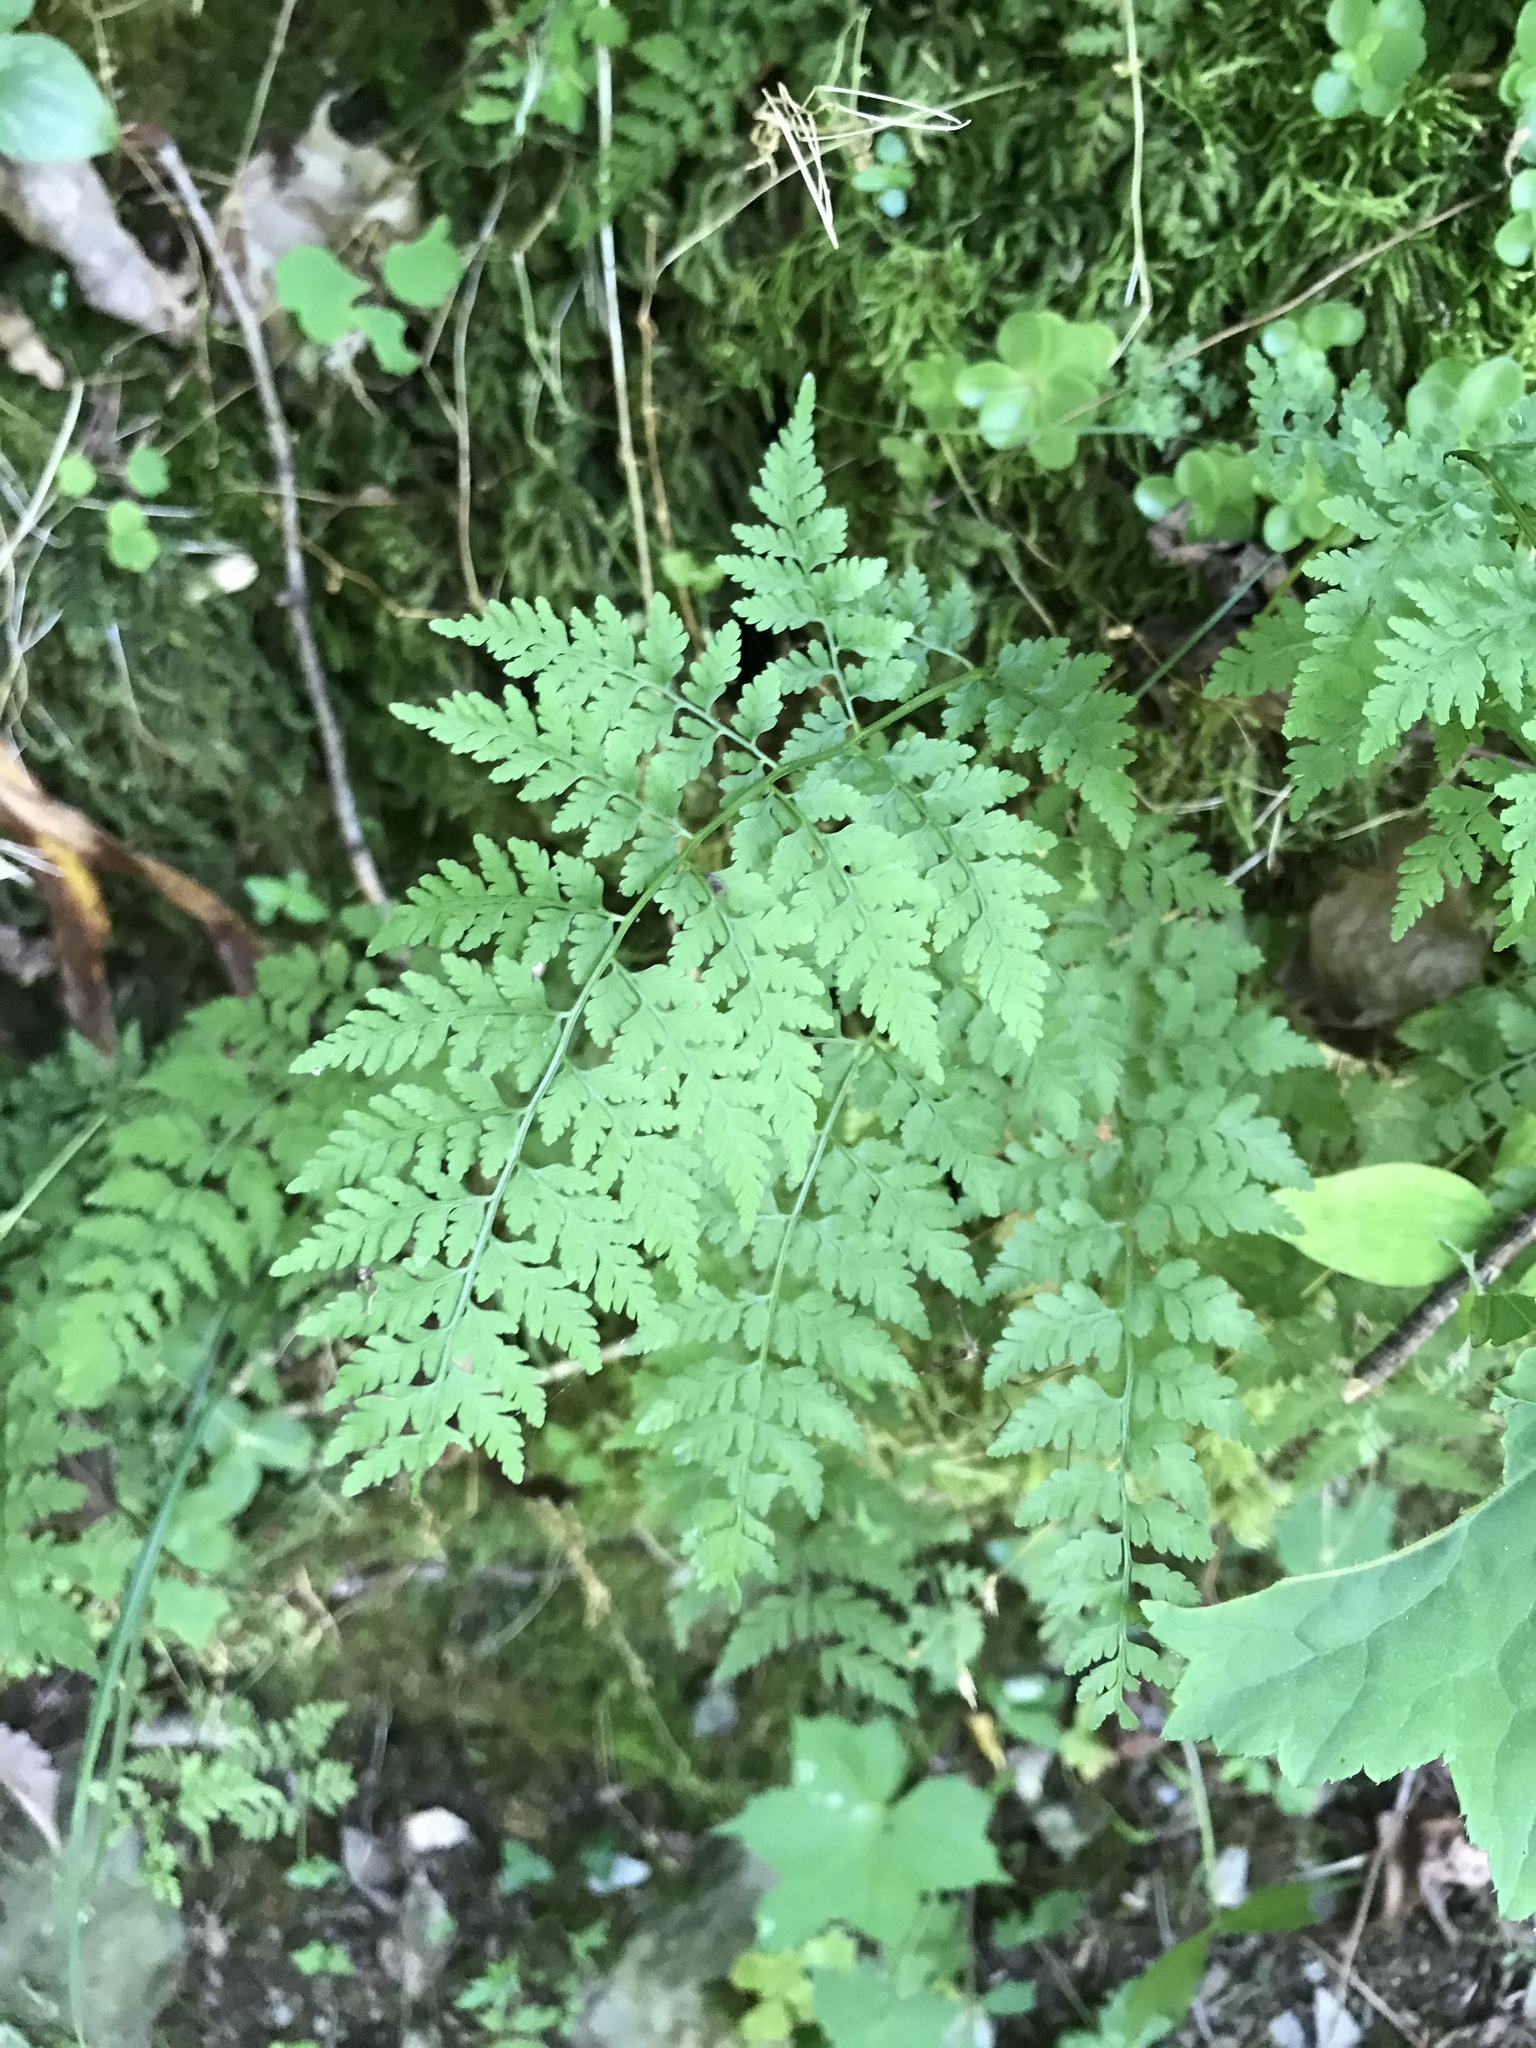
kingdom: Plantae
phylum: Tracheophyta
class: Polypodiopsida
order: Polypodiales
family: Cystopteridaceae
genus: Cystopteris
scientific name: Cystopteris protrusa
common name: Lowland brittle fern
